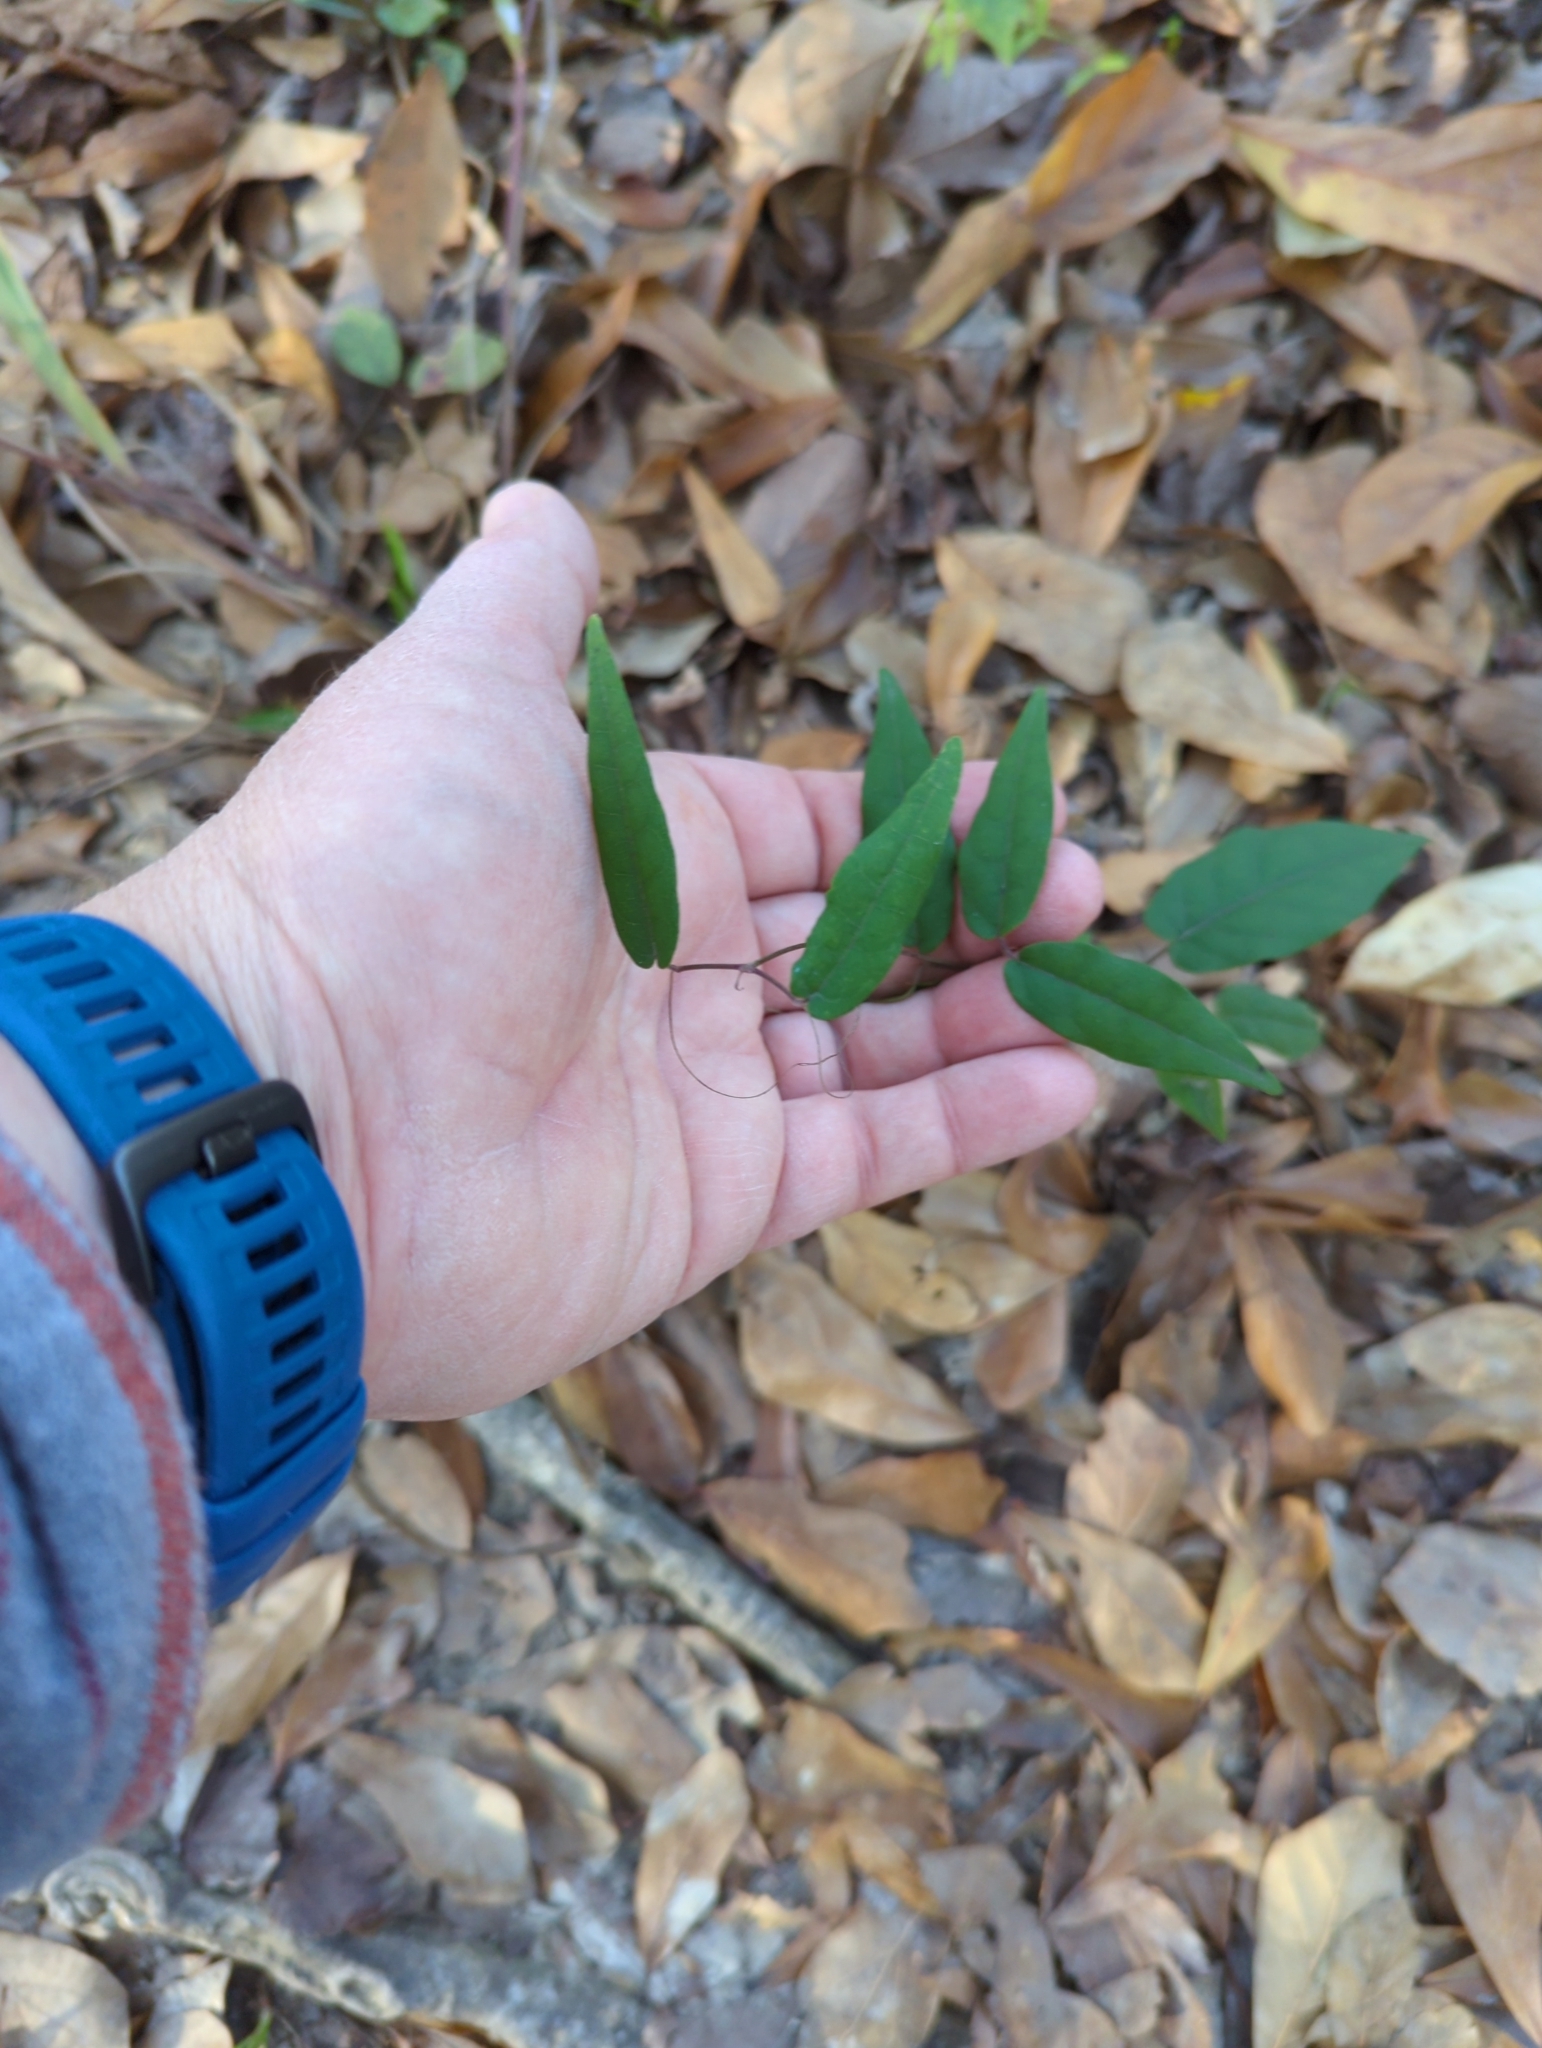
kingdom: Plantae
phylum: Tracheophyta
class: Magnoliopsida
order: Lamiales
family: Bignoniaceae
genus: Bignonia
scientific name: Bignonia capreolata
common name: Crossvine
